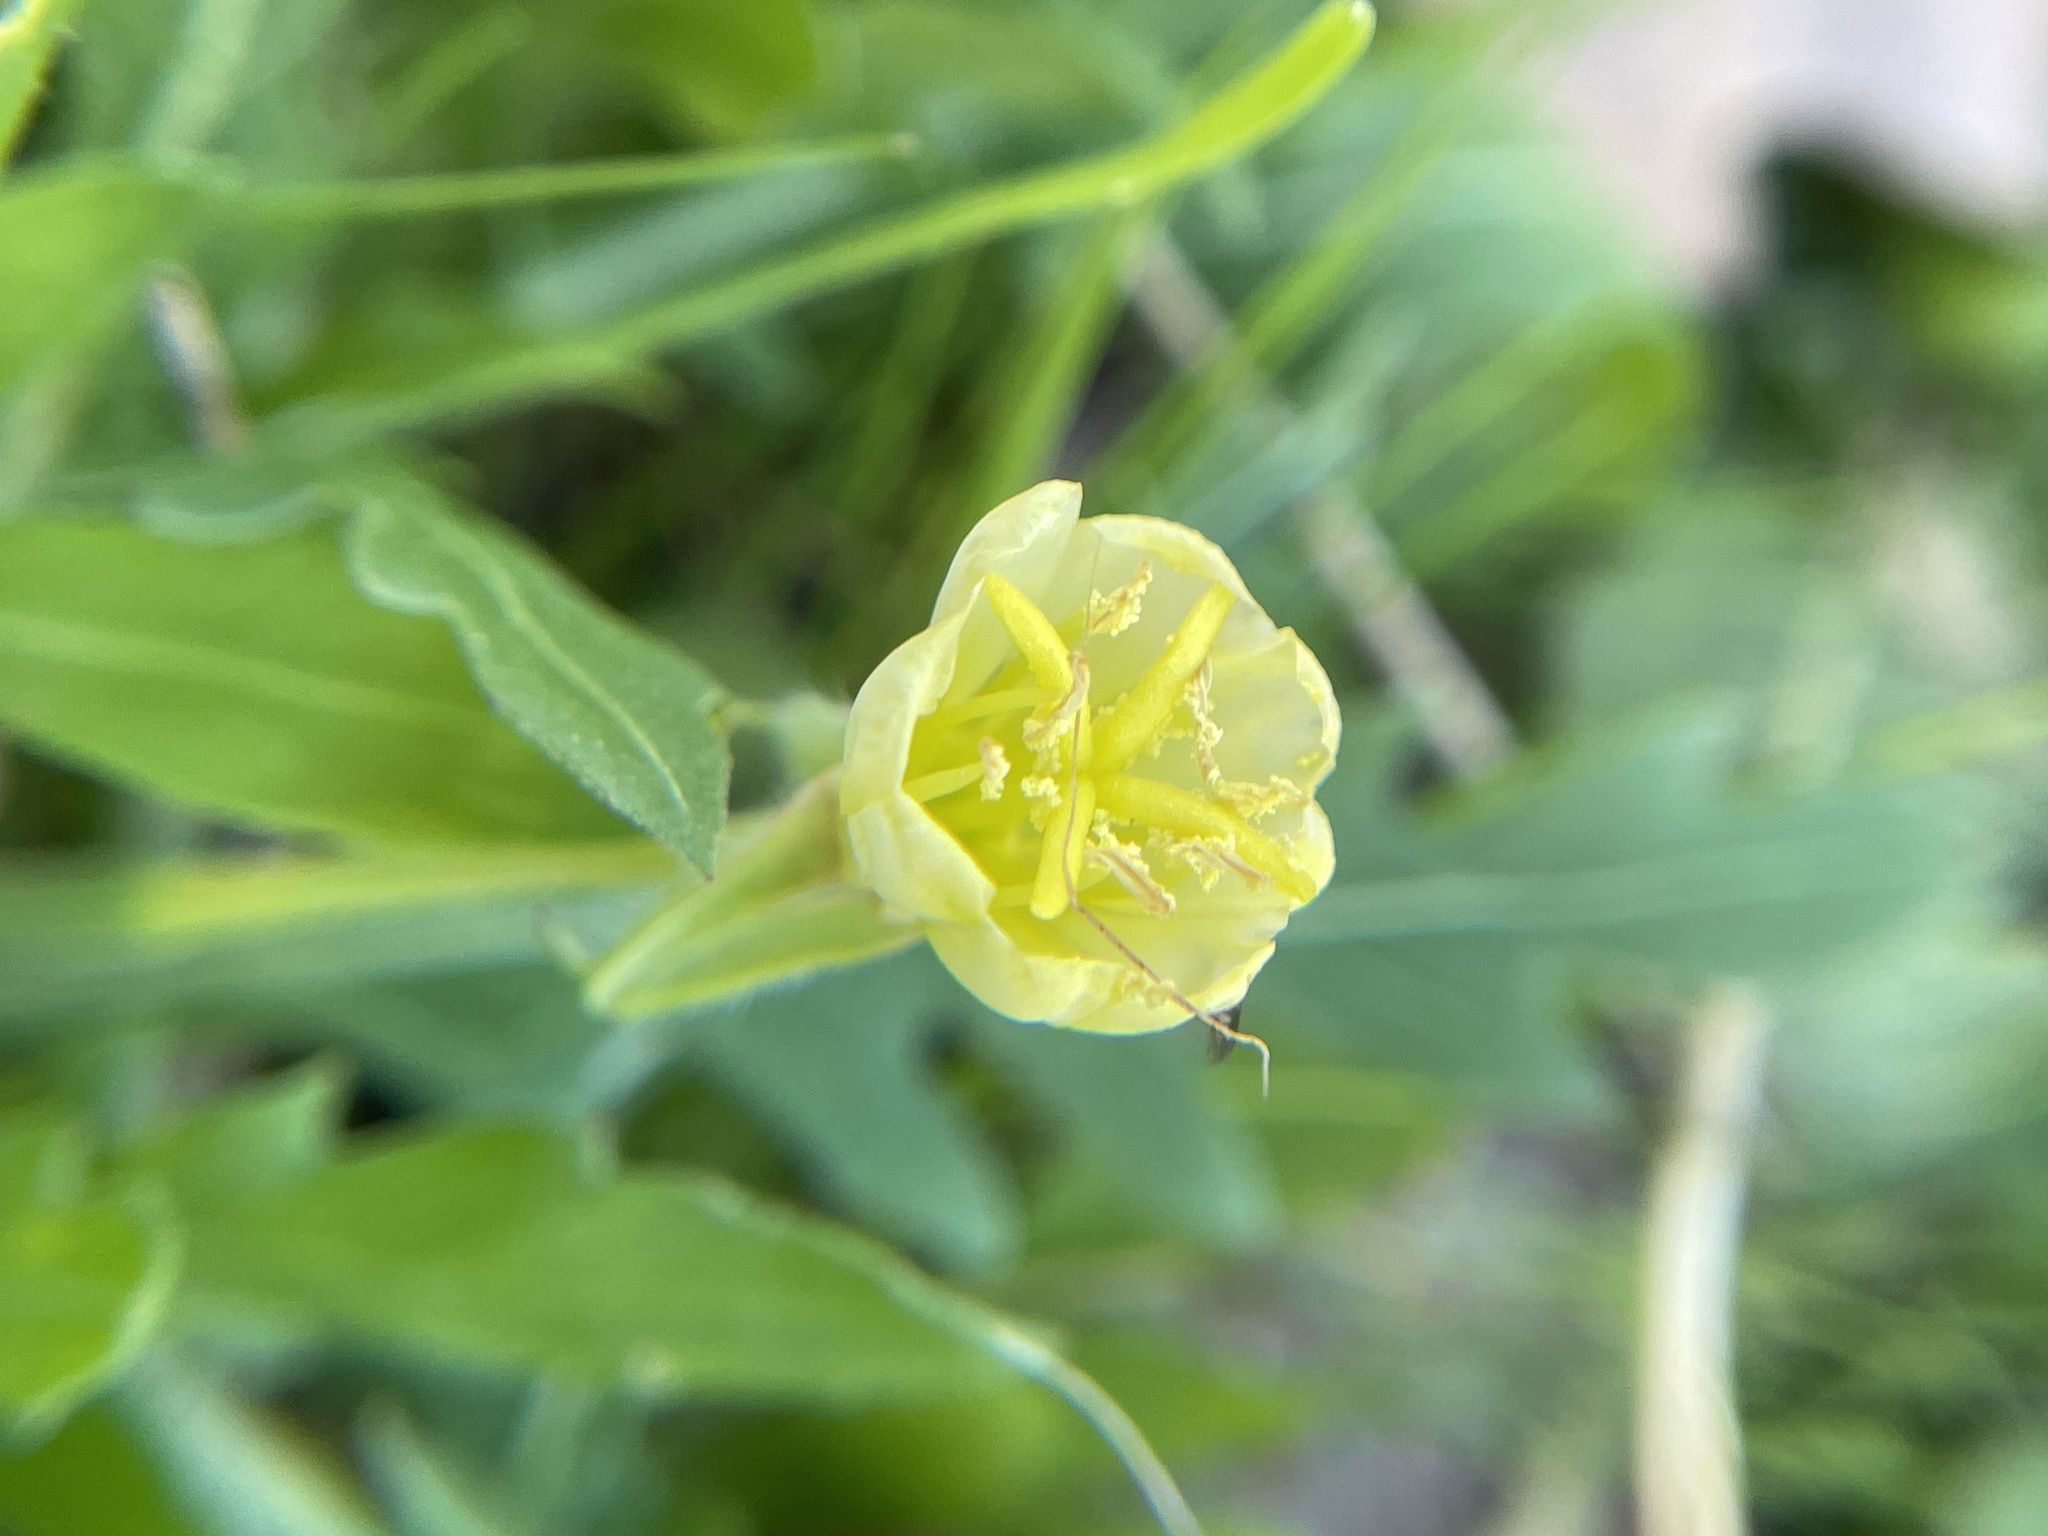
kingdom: Plantae
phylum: Tracheophyta
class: Magnoliopsida
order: Myrtales
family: Onagraceae
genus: Oenothera
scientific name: Oenothera laciniata
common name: Cut-leaved evening-primrose
